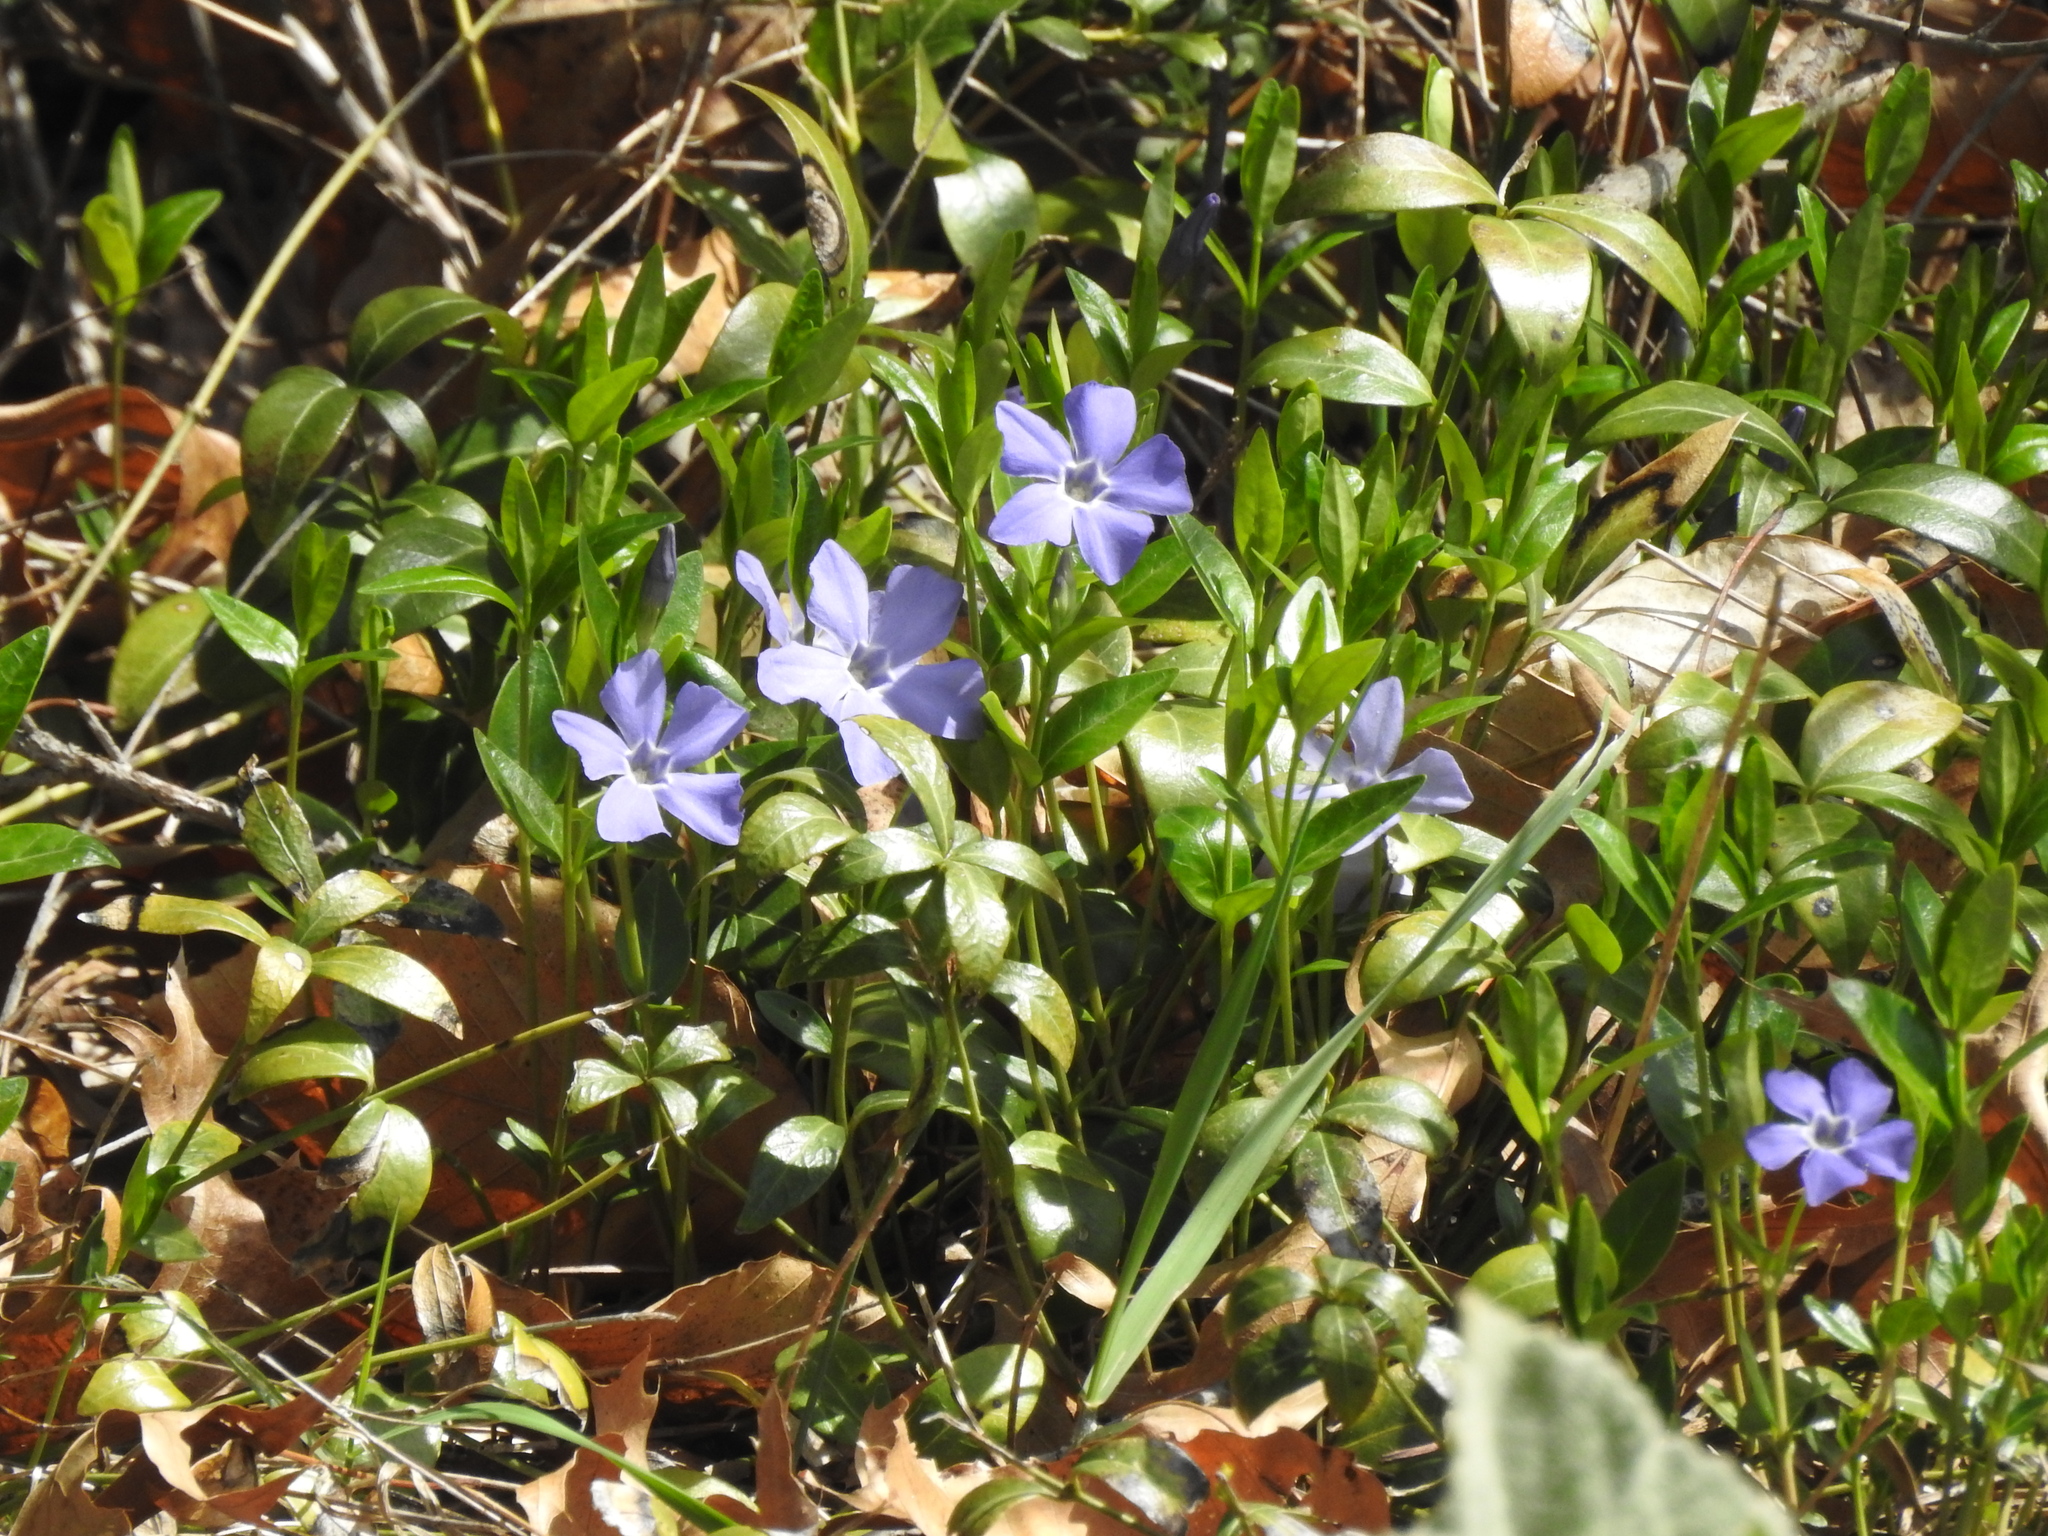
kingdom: Plantae
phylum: Tracheophyta
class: Magnoliopsida
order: Gentianales
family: Apocynaceae
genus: Vinca
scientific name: Vinca minor
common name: Lesser periwinkle
